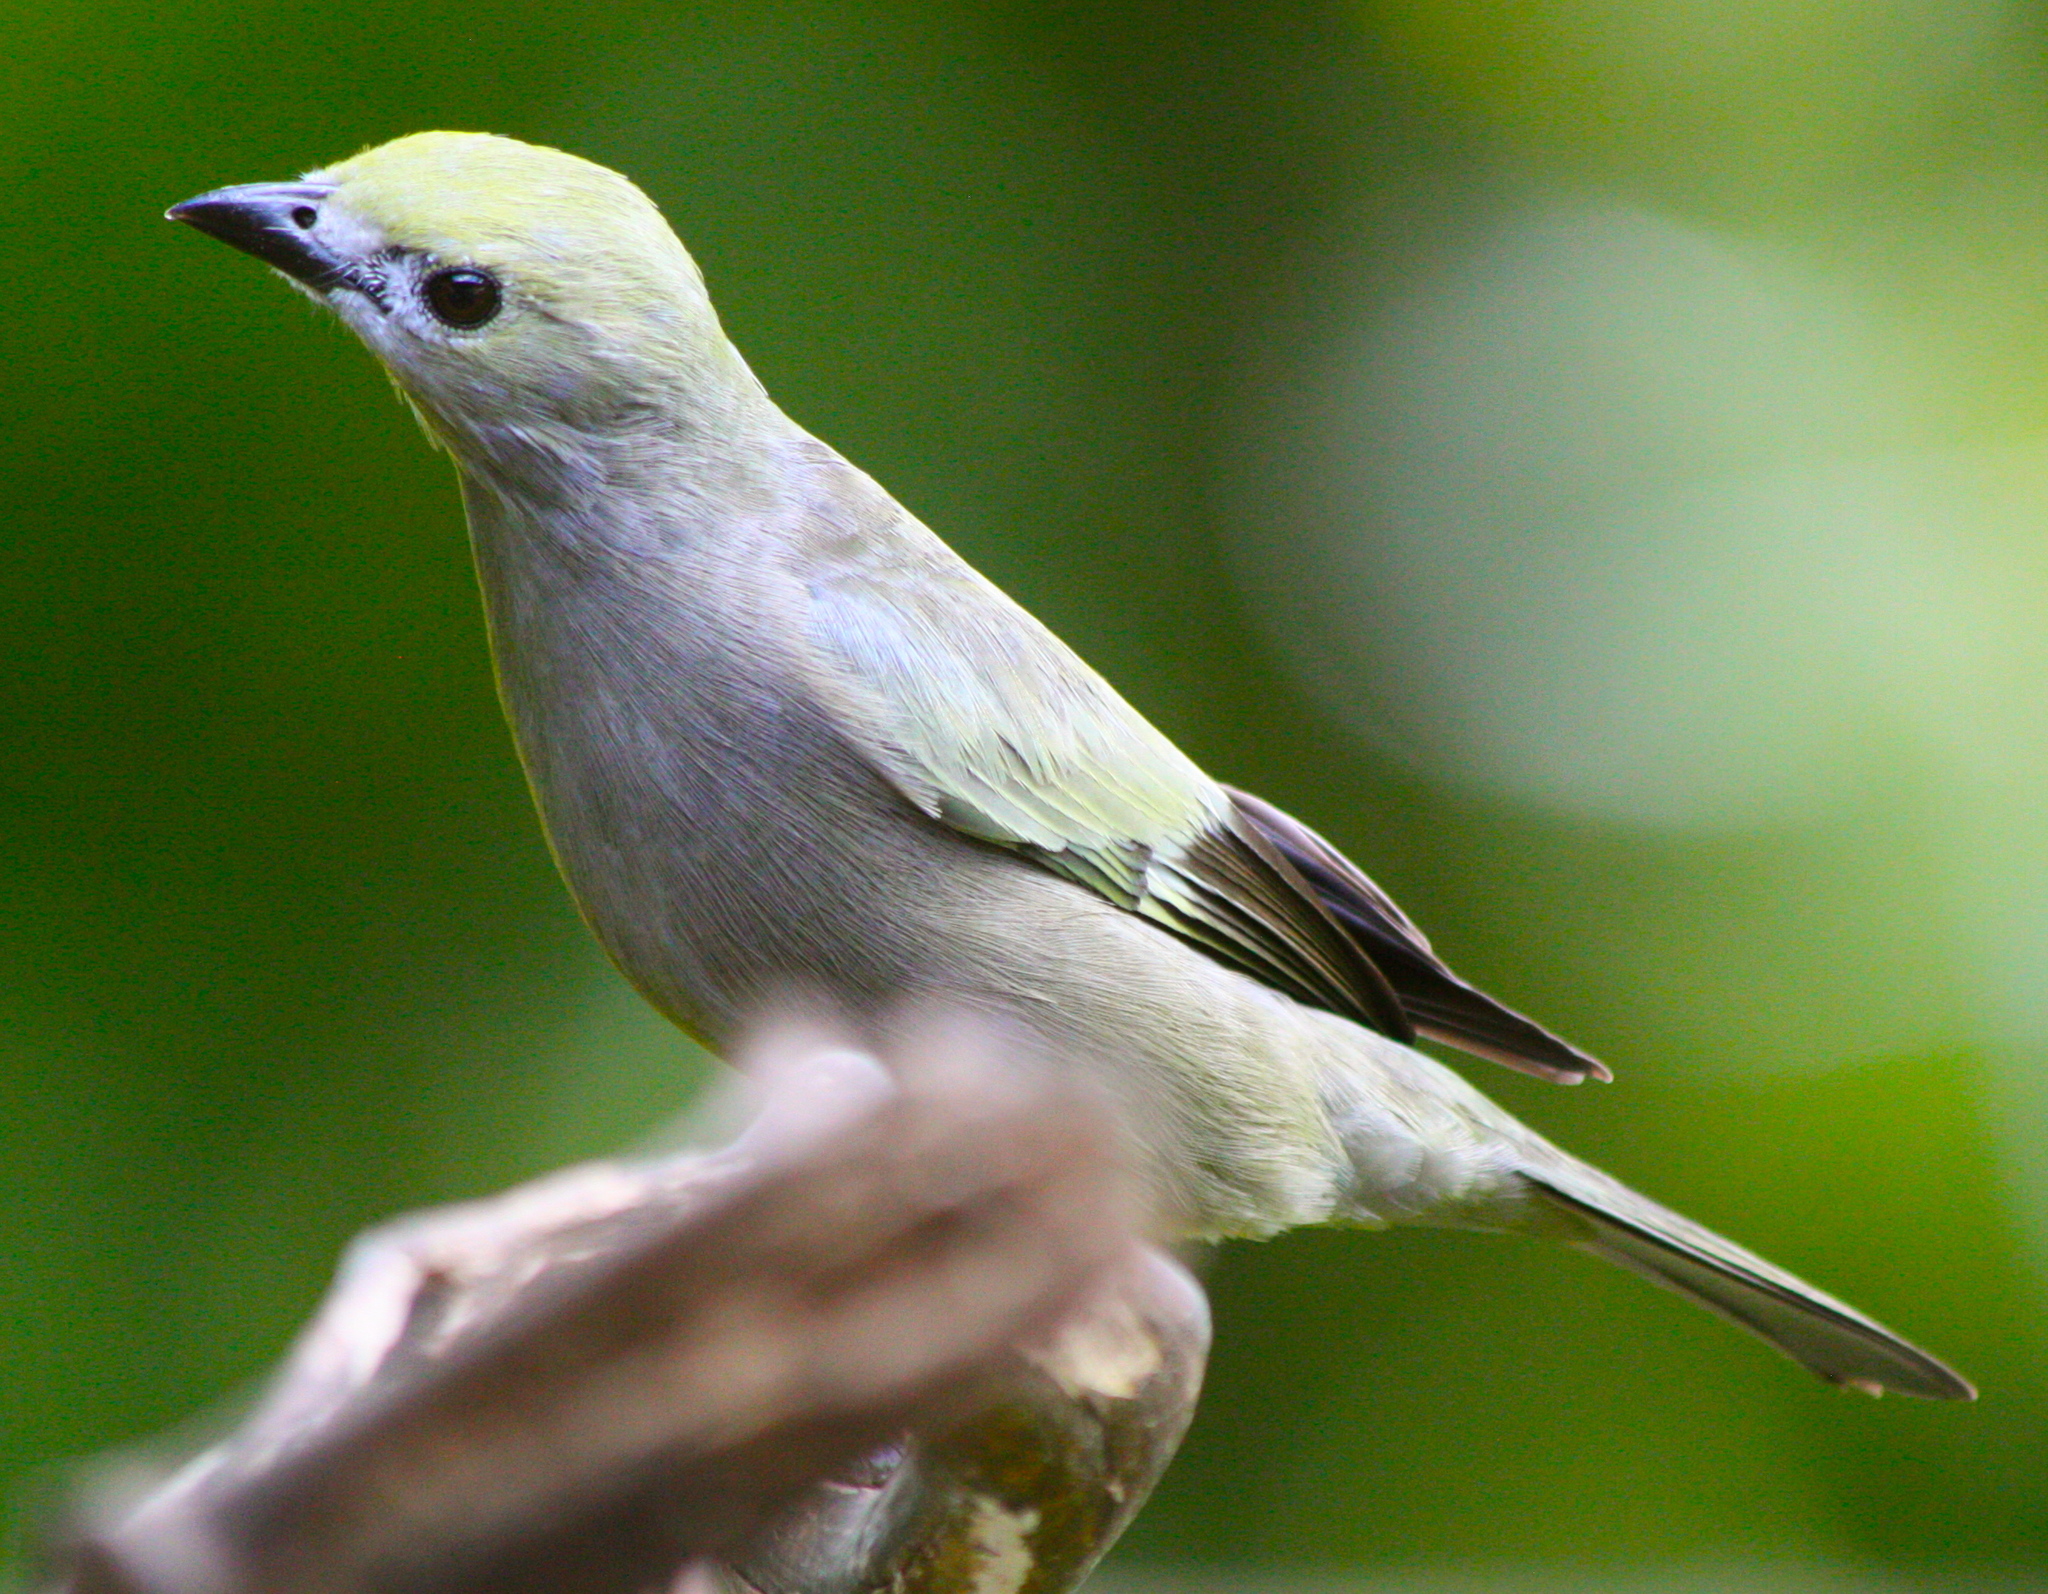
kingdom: Animalia
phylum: Chordata
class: Aves
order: Passeriformes
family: Thraupidae
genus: Thraupis
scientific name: Thraupis palmarum
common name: Palm tanager
